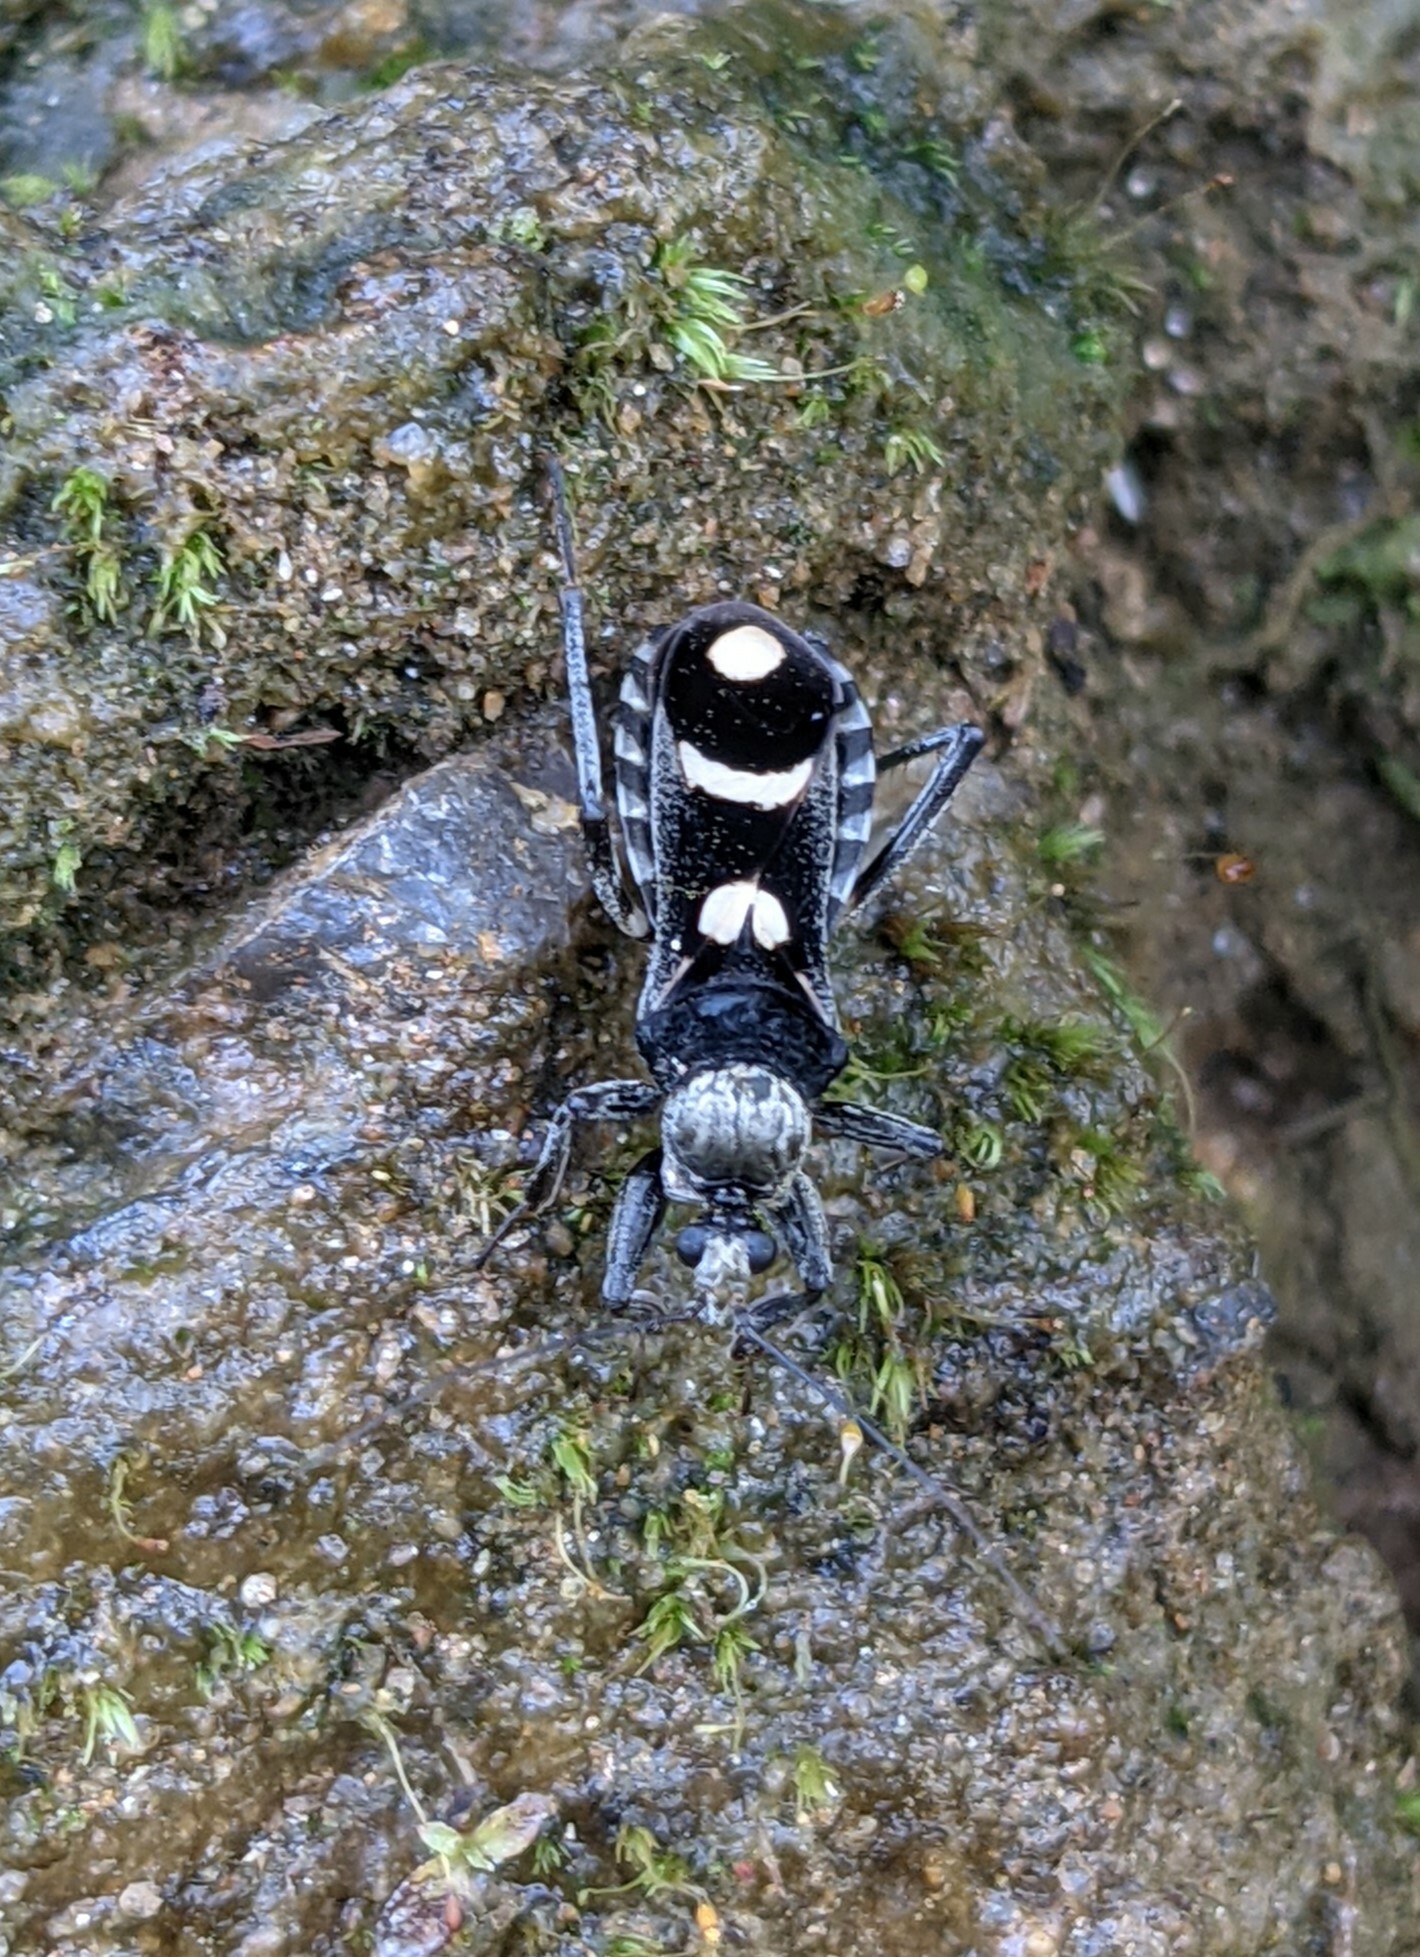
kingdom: Animalia
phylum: Arthropoda
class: Insecta
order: Hemiptera
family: Reduviidae
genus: Rasahus
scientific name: Rasahus arcuiger
